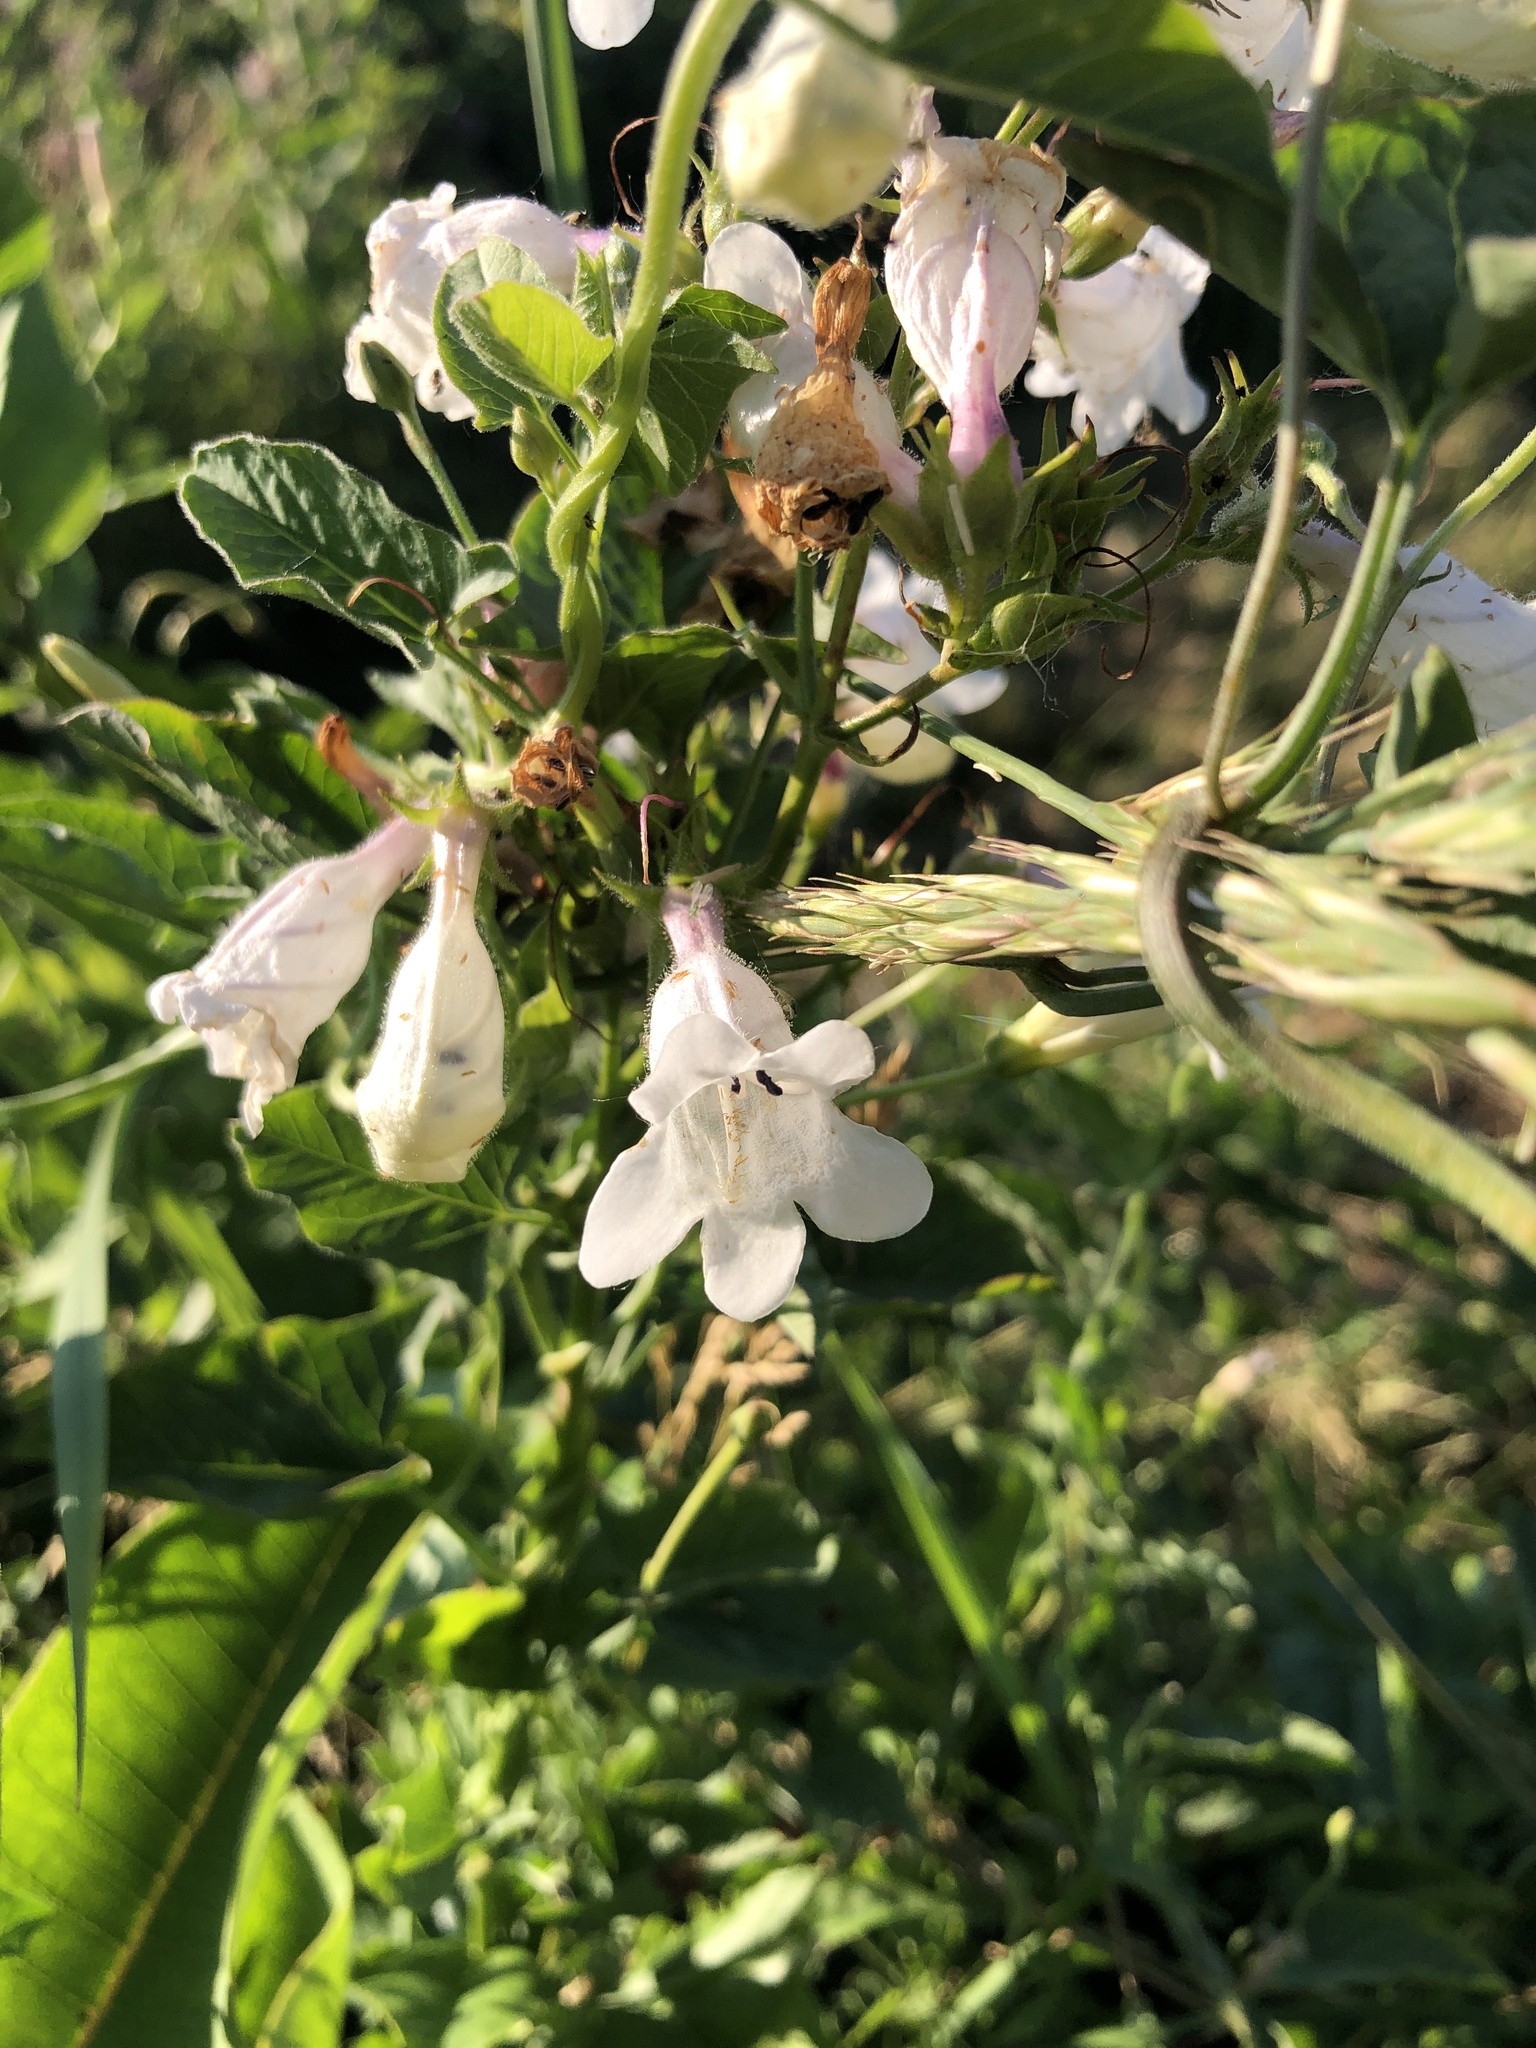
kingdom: Plantae
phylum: Tracheophyta
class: Magnoliopsida
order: Lamiales
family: Plantaginaceae
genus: Penstemon
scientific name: Penstemon digitalis
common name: Foxglove beardtongue
